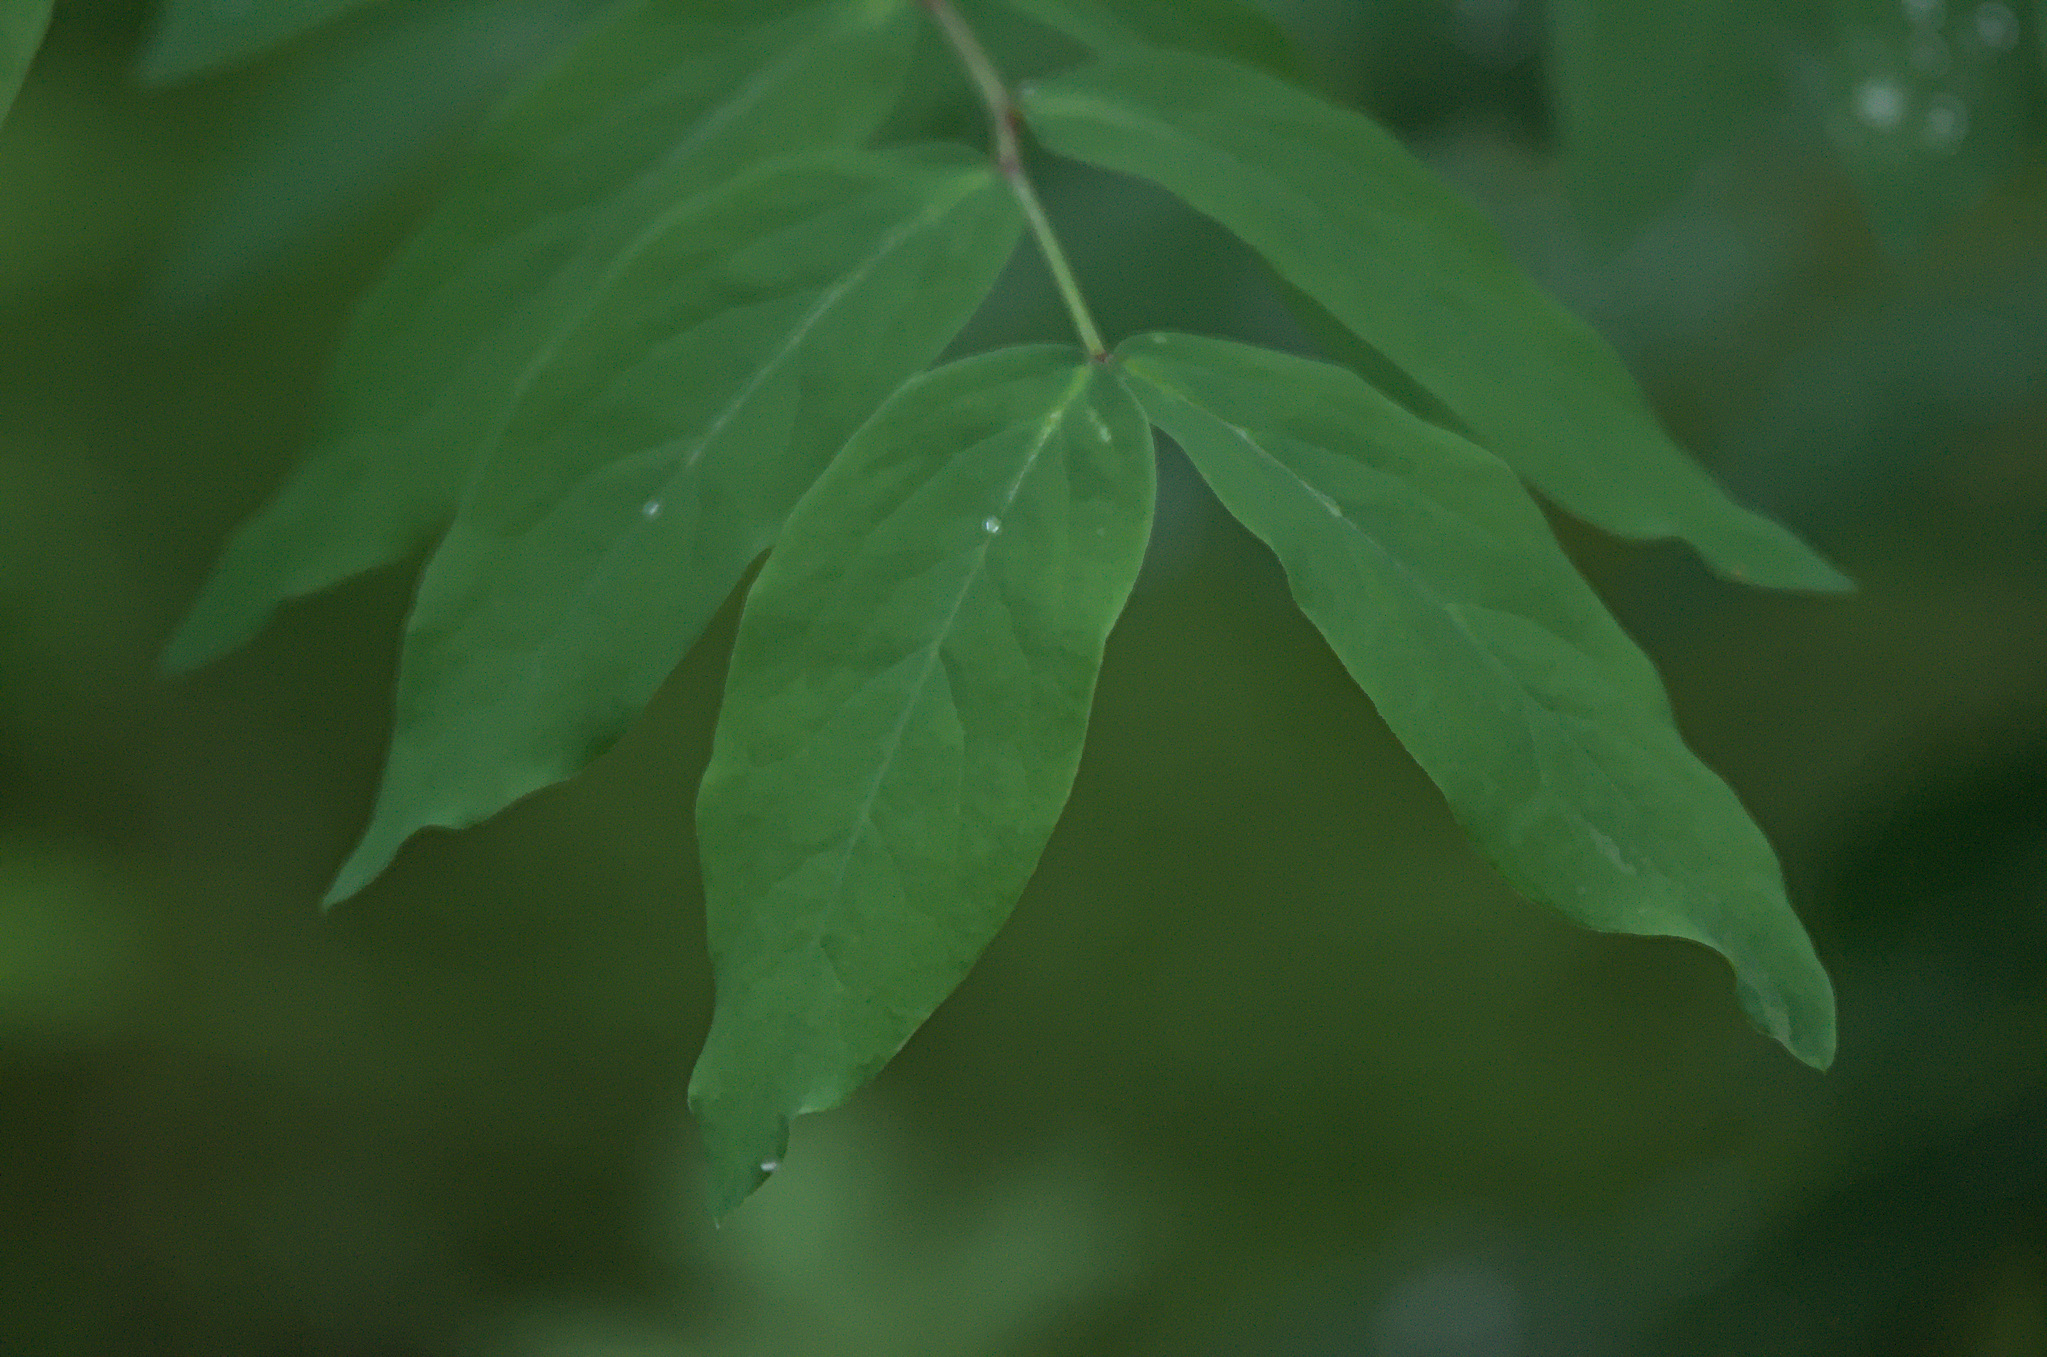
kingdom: Plantae
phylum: Tracheophyta
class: Magnoliopsida
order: Fabales
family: Fabaceae
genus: Lathyrus
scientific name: Lathyrus gmelinii
